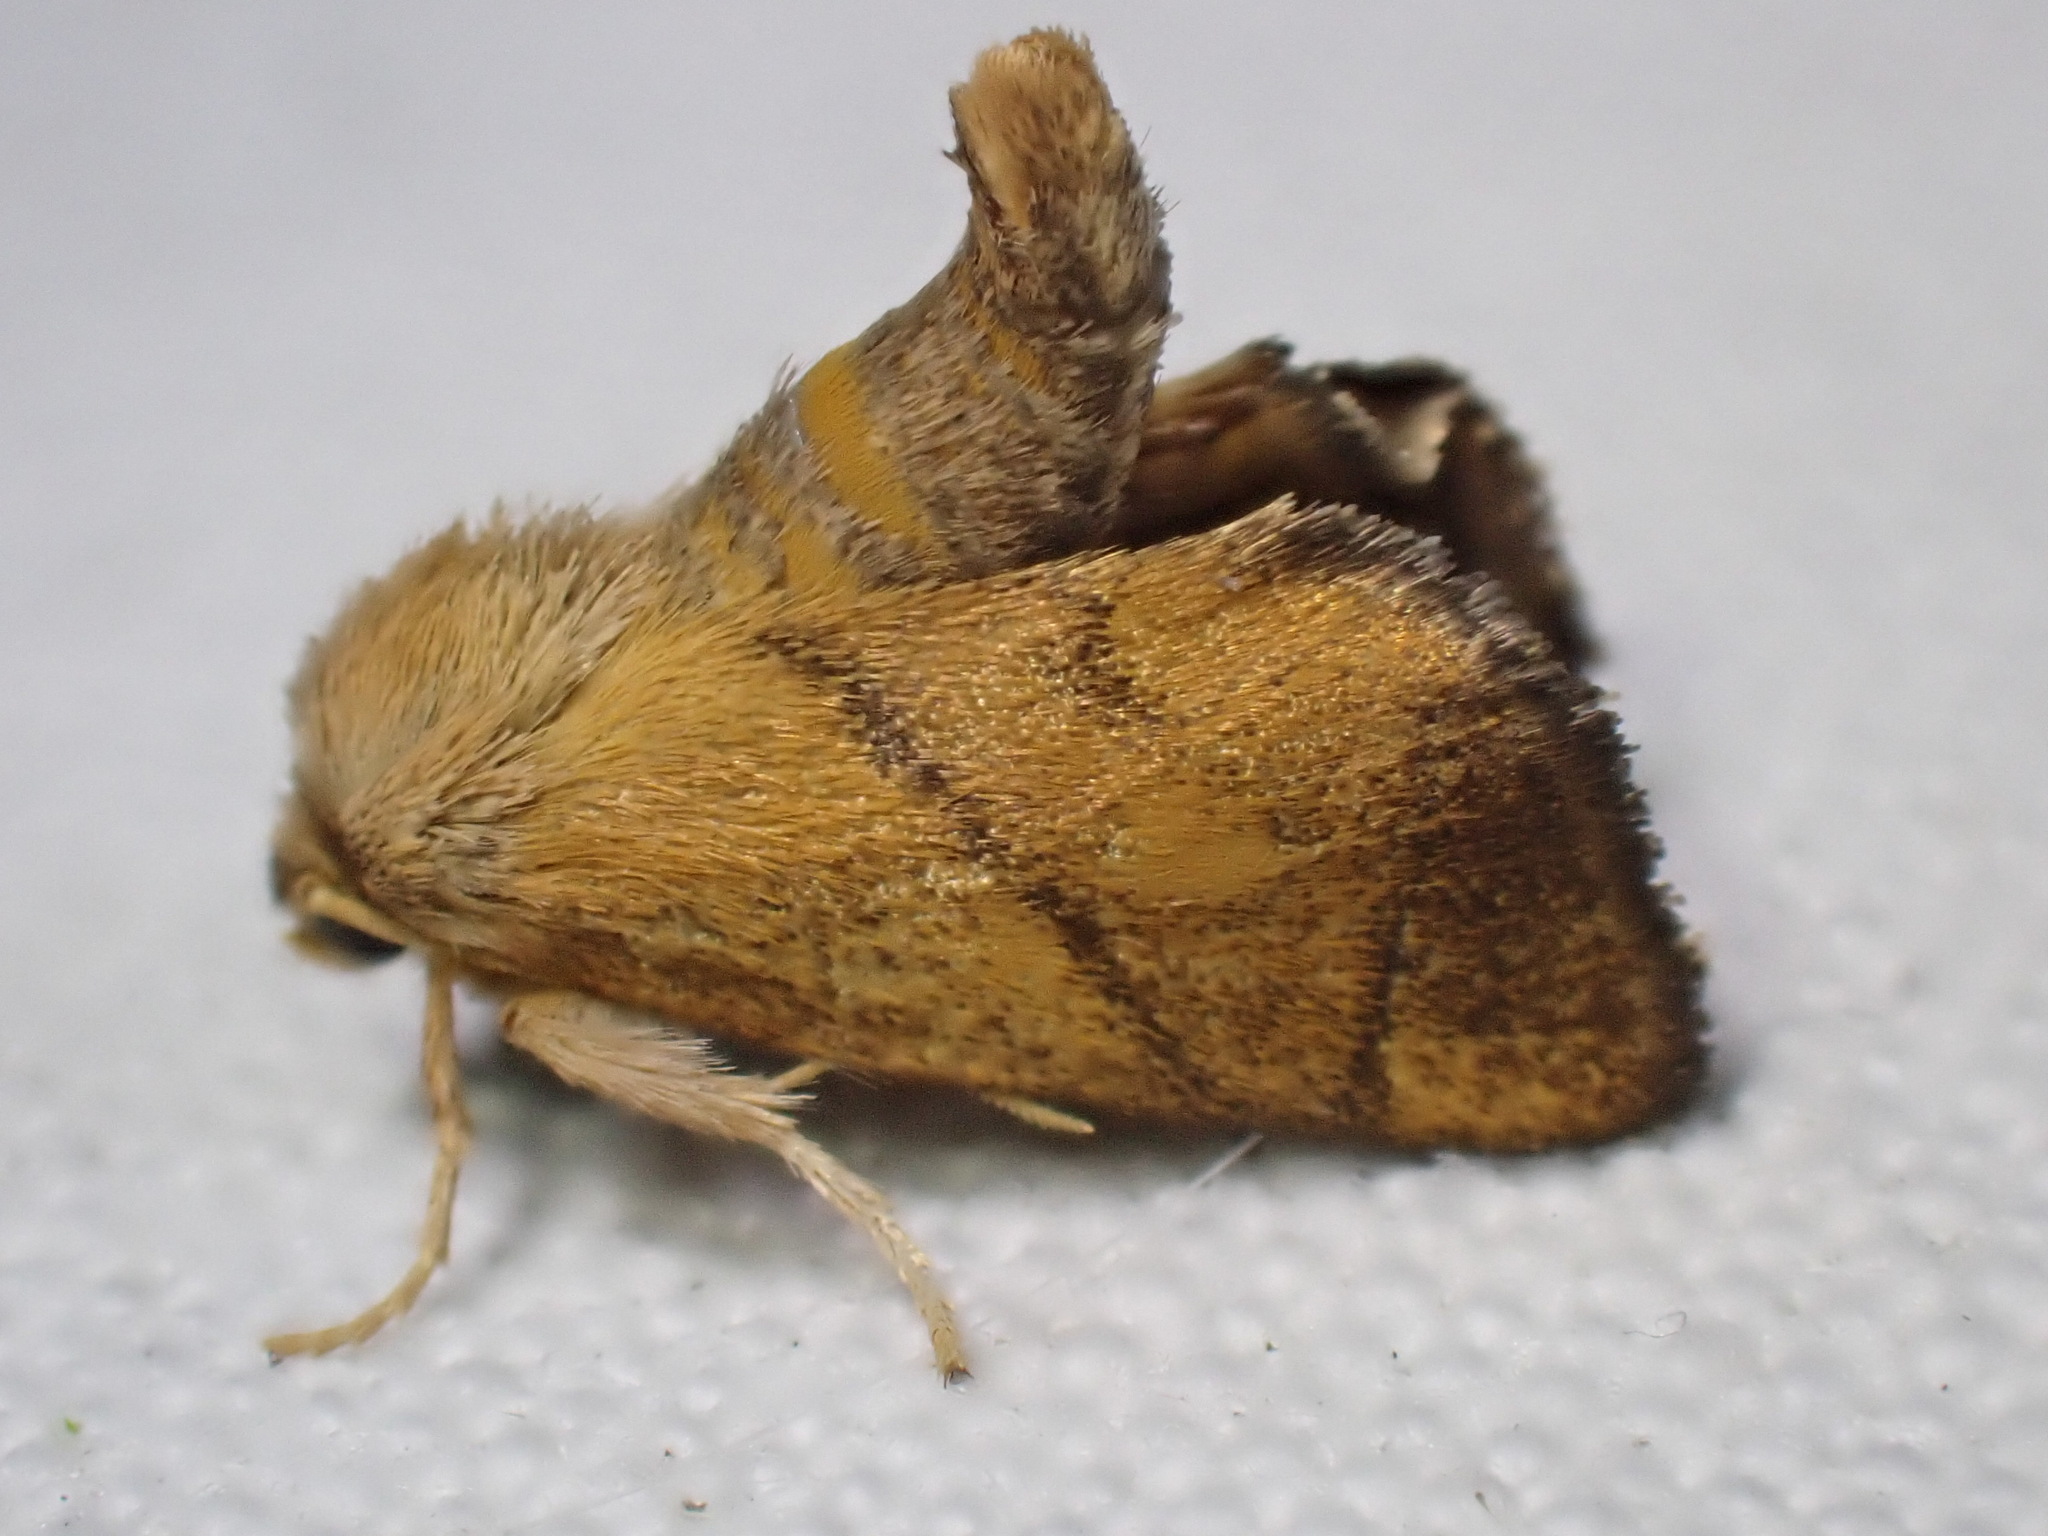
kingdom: Animalia
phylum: Arthropoda
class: Insecta
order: Lepidoptera
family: Limacodidae
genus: Apoda
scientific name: Apoda limacodes
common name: Festoon
